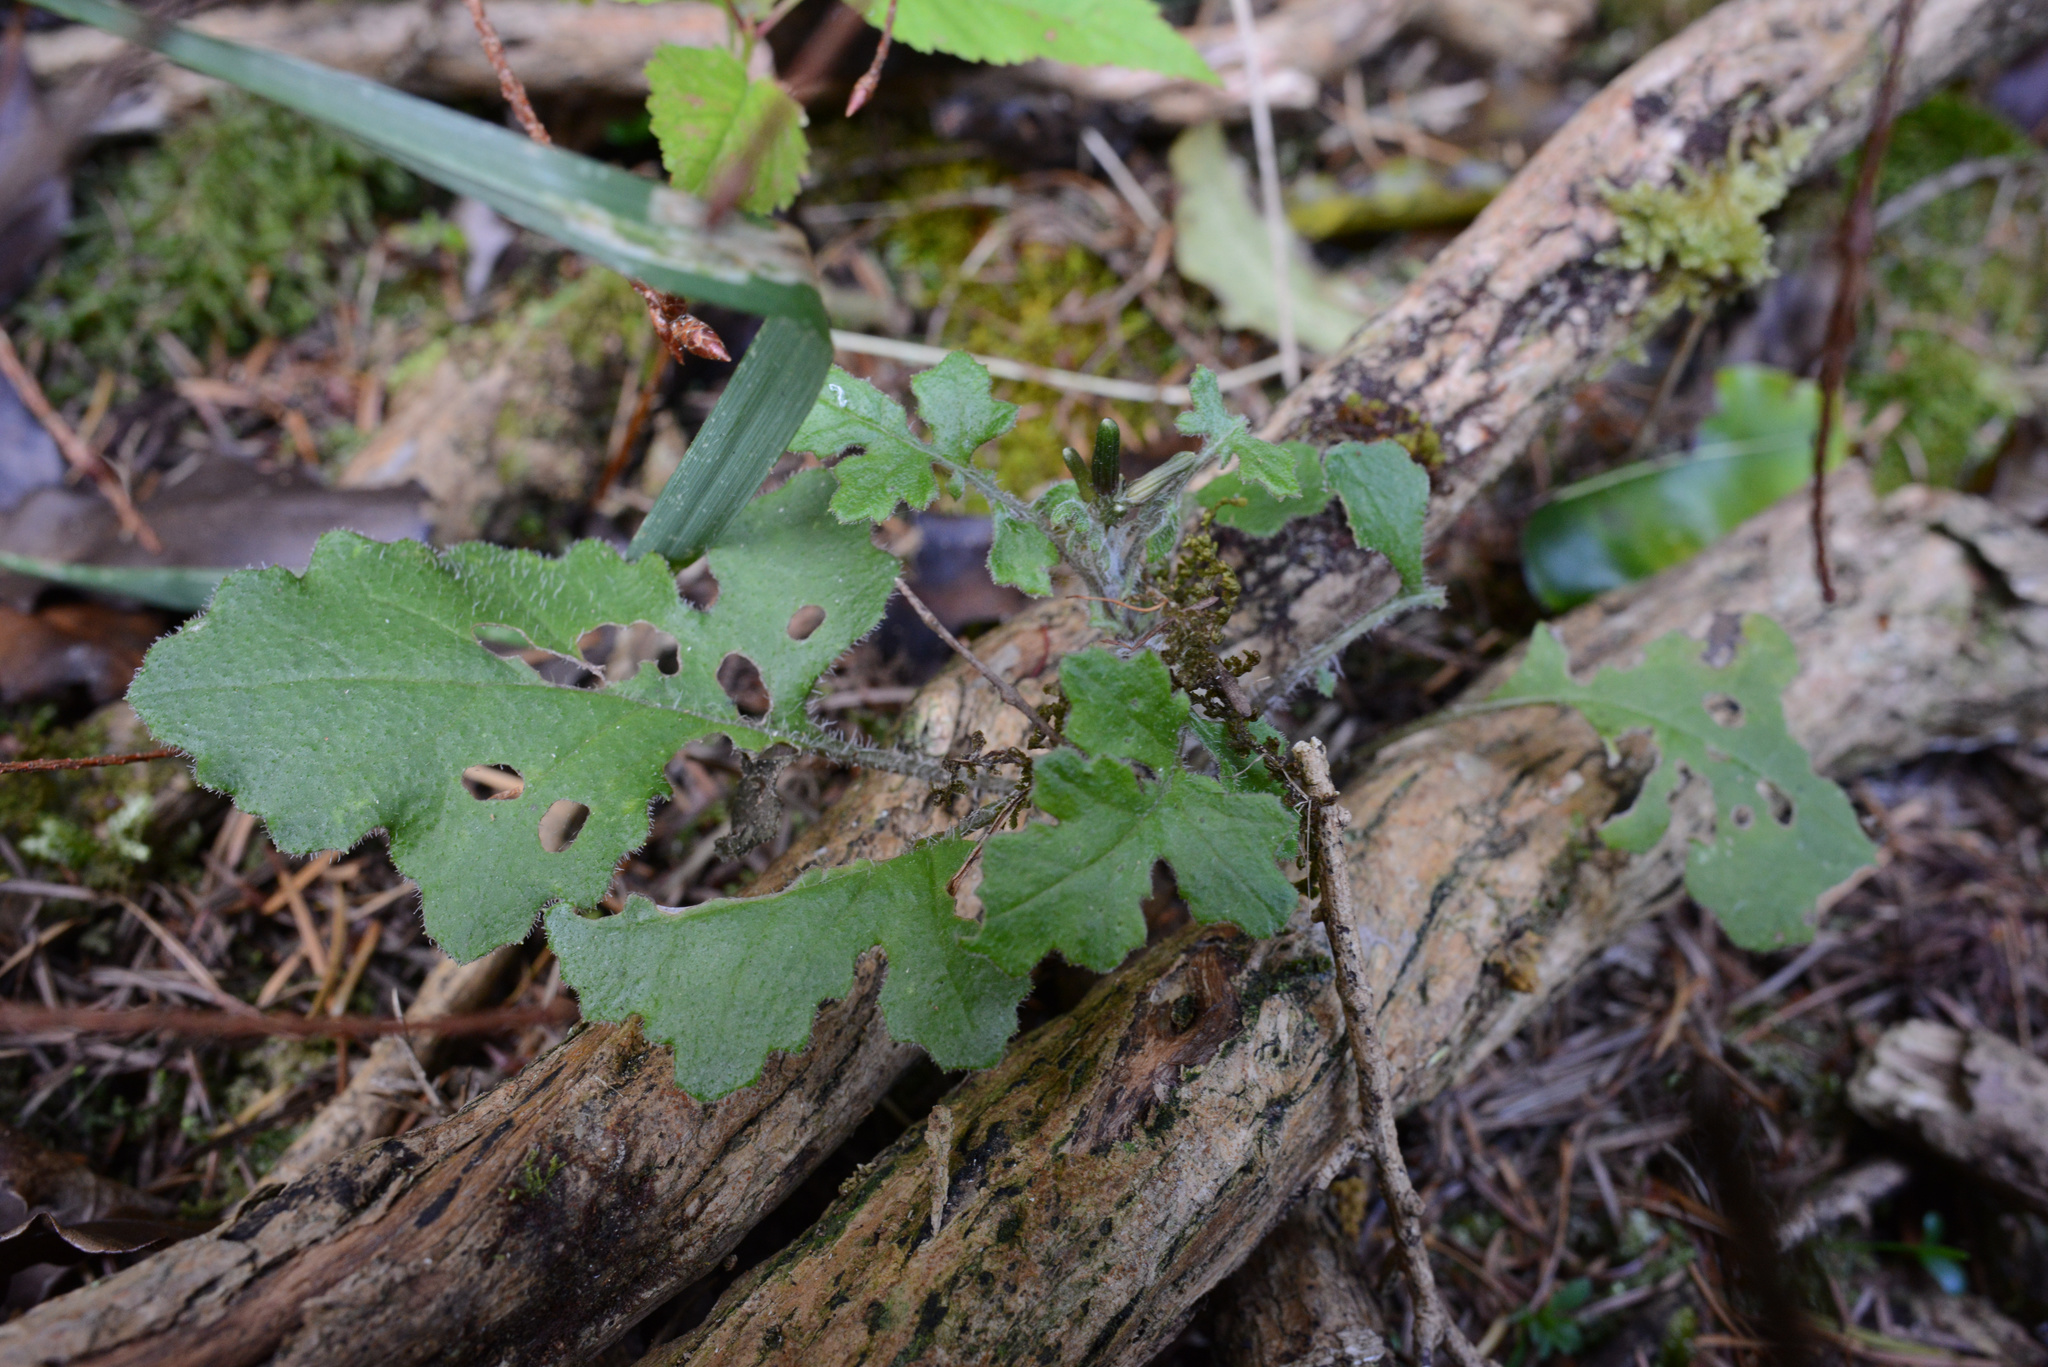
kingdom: Plantae
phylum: Tracheophyta
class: Magnoliopsida
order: Asterales
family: Asteraceae
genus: Senecio
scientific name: Senecio wairauensis
